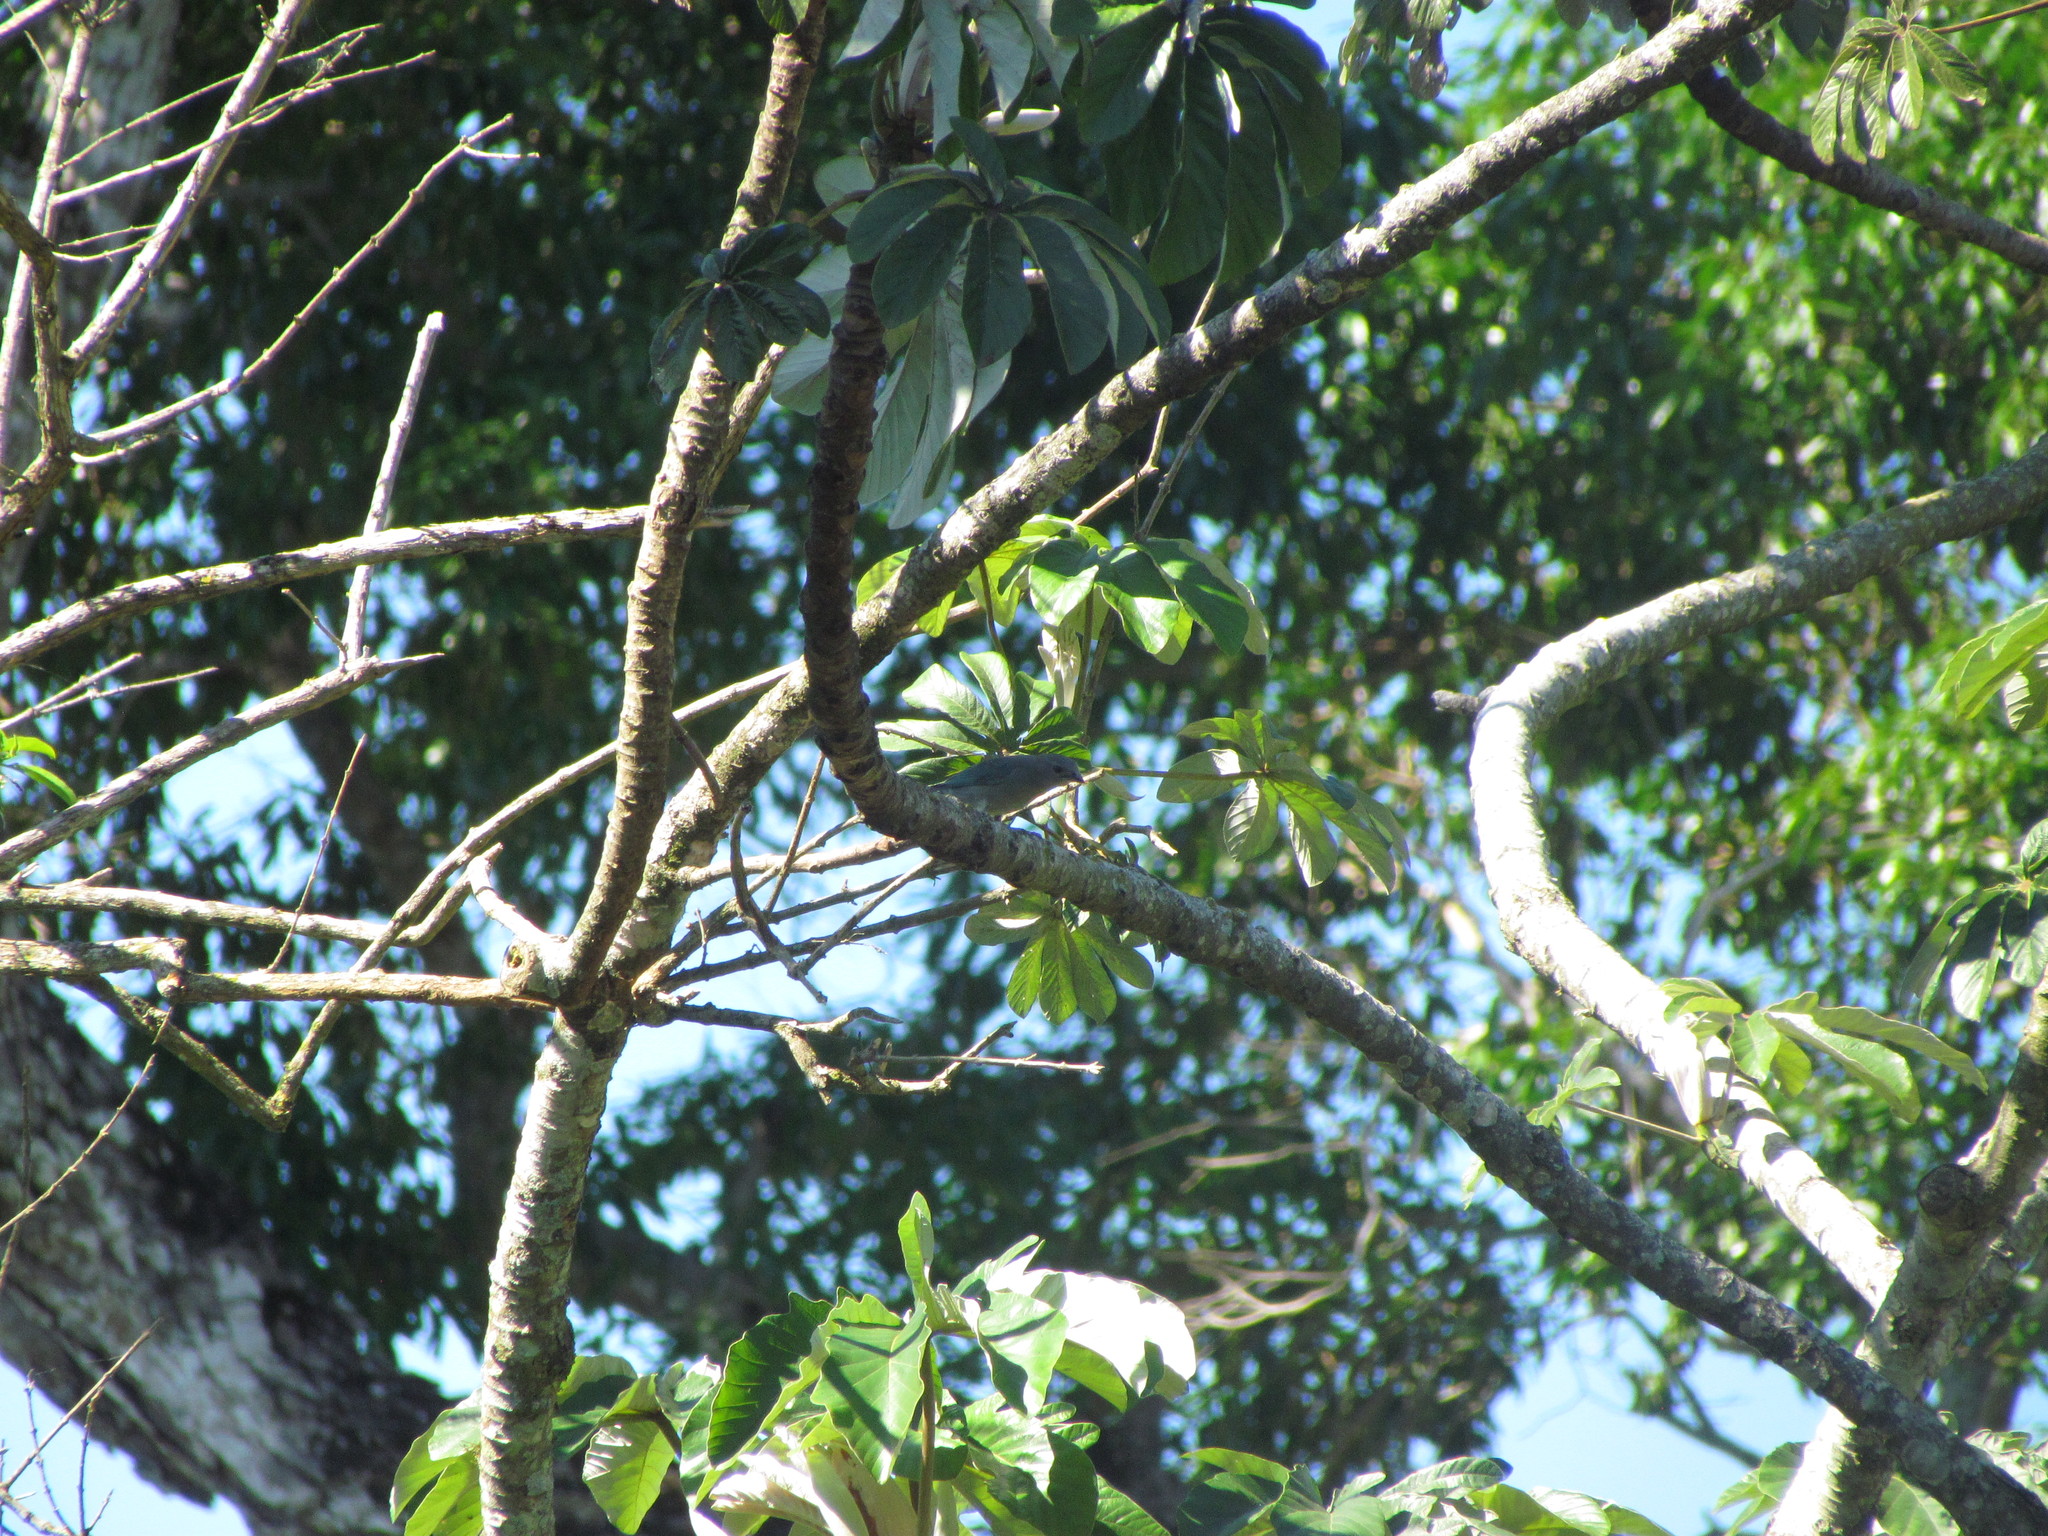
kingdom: Animalia
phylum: Chordata
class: Aves
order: Passeriformes
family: Thraupidae
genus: Thraupis
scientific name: Thraupis sayaca
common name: Sayaca tanager
